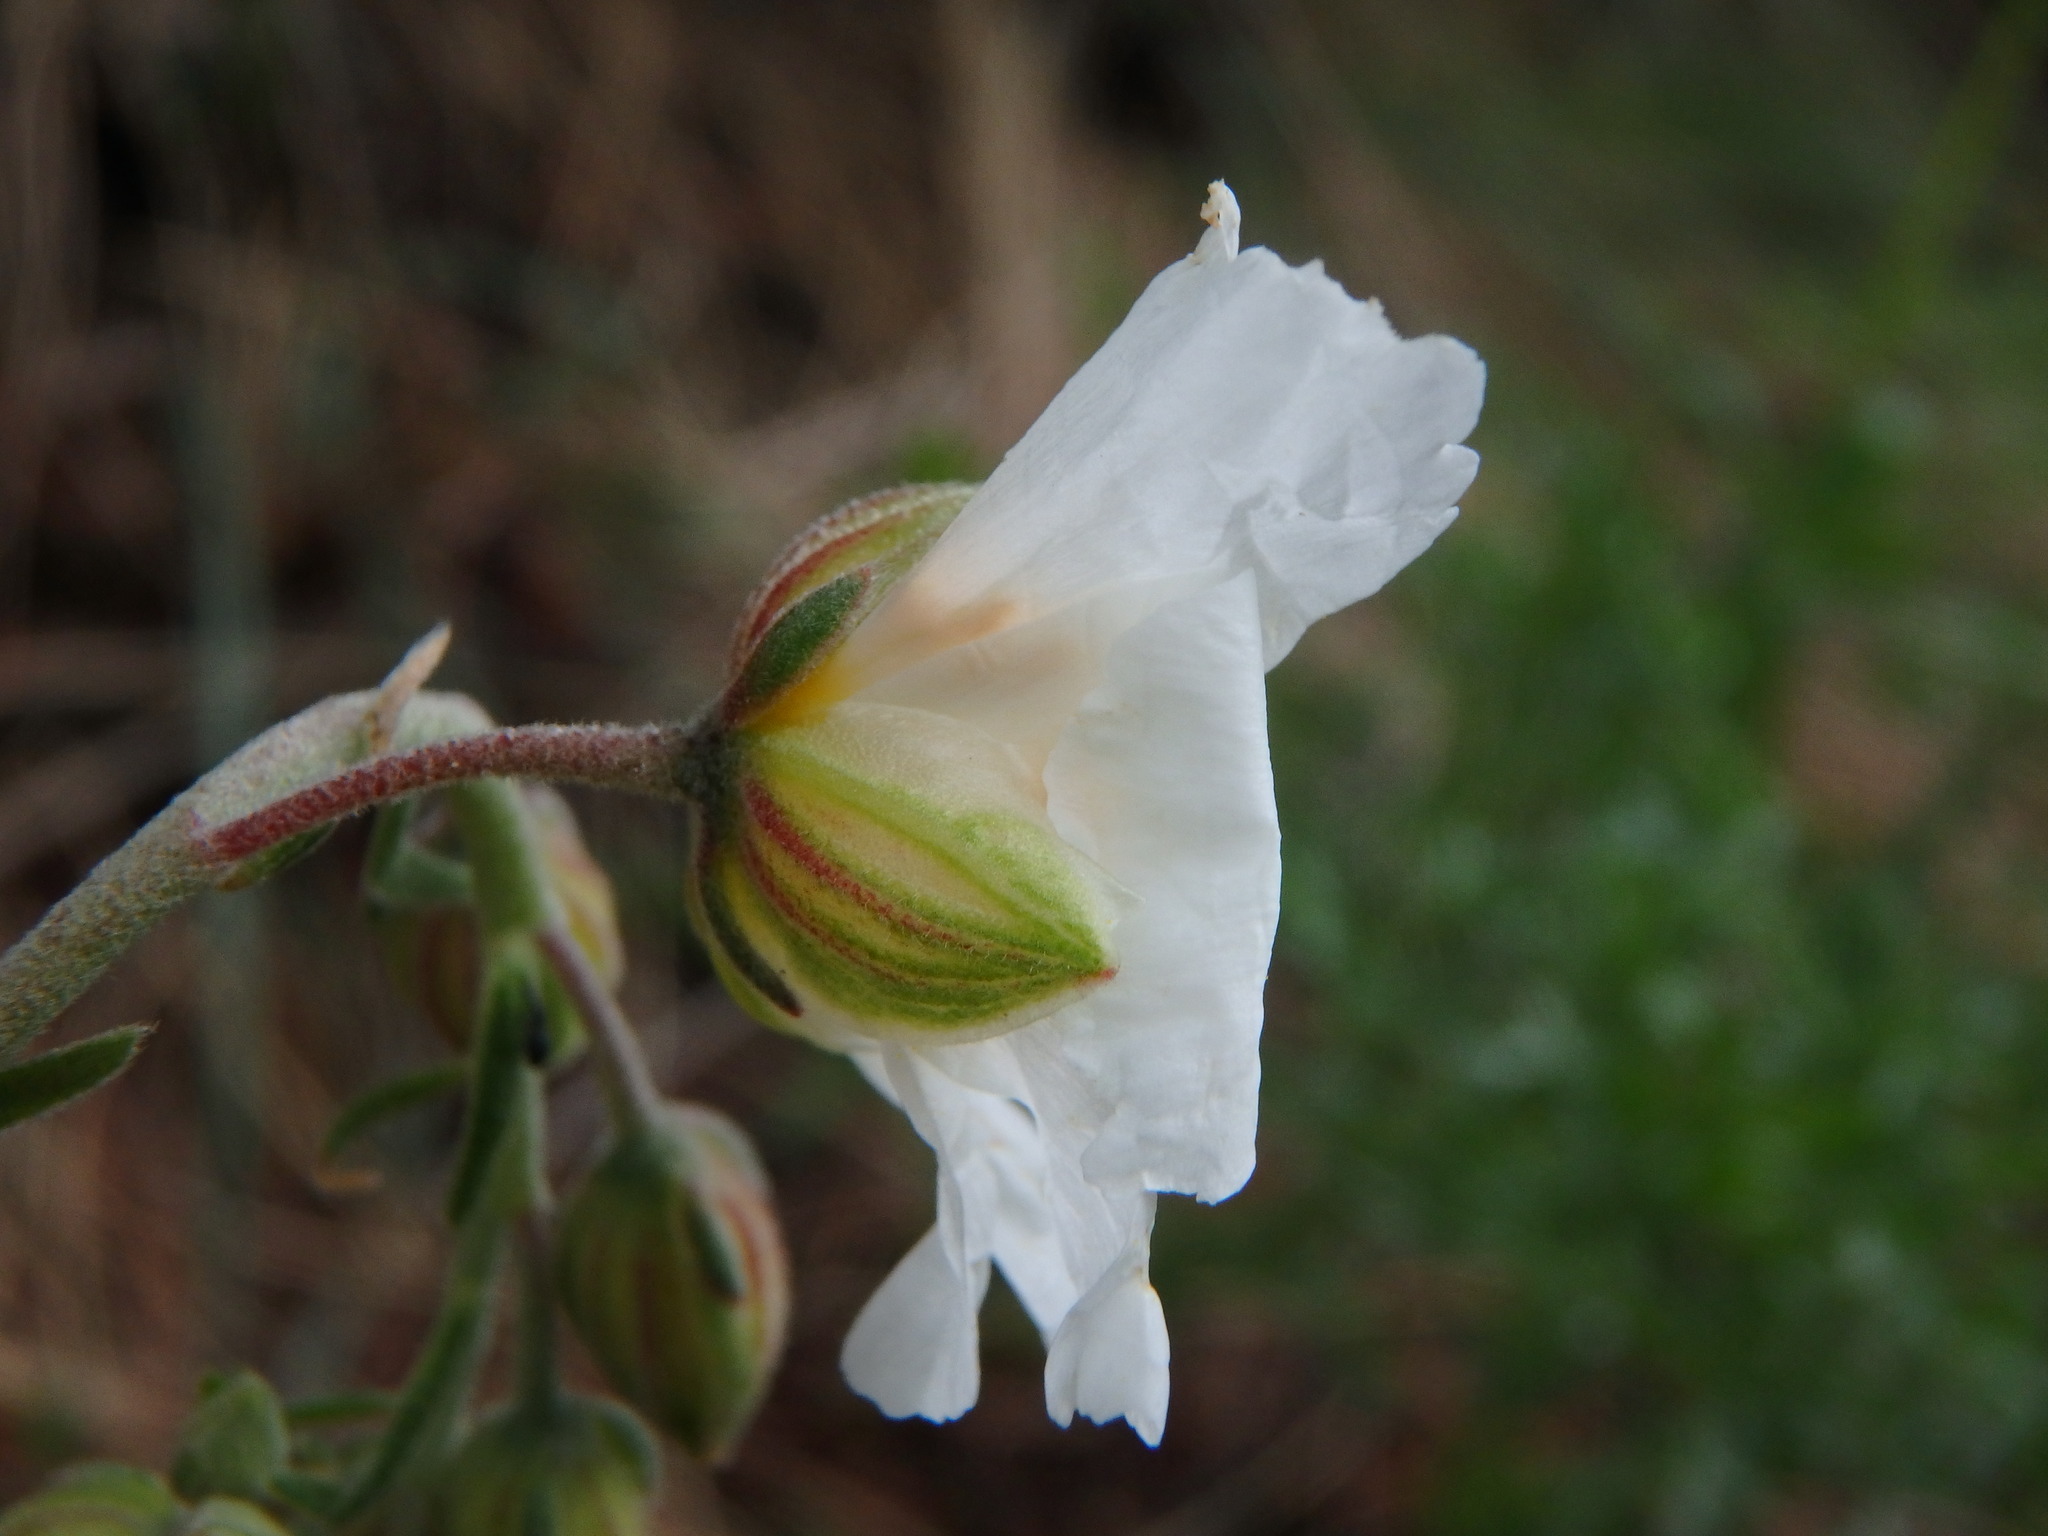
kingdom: Plantae
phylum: Tracheophyta
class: Magnoliopsida
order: Malvales
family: Cistaceae
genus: Helianthemum
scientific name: Helianthemum apenninum
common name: White rock-rose
